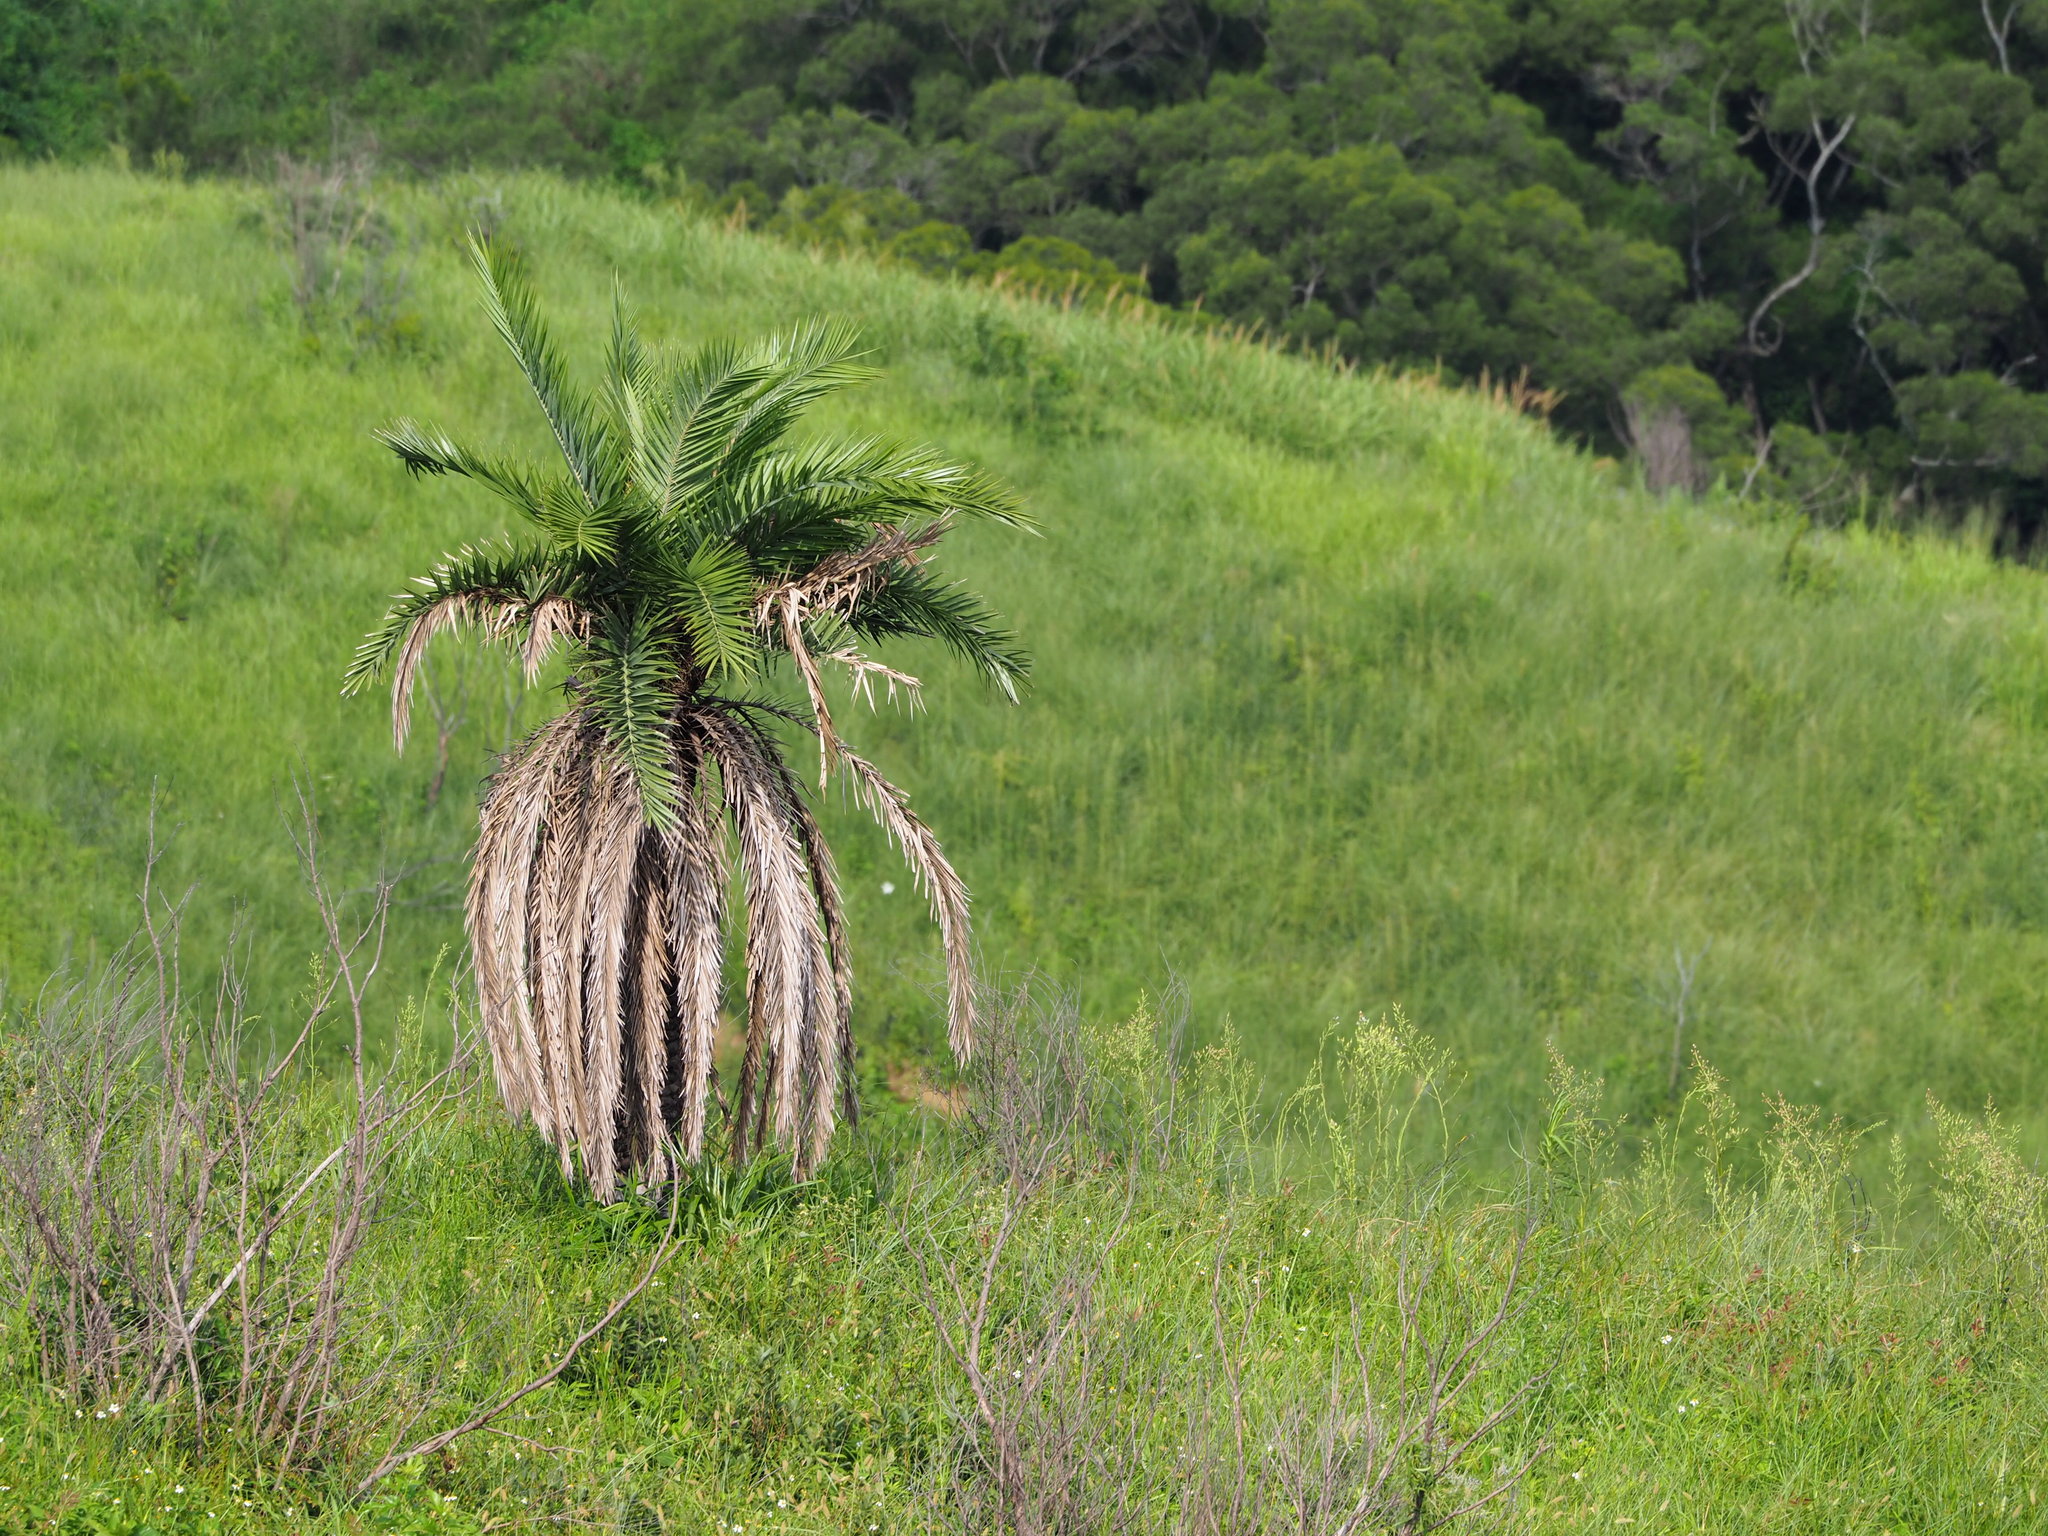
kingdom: Plantae
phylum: Tracheophyta
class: Liliopsida
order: Arecales
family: Arecaceae
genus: Phoenix
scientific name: Phoenix loureiroi
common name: Loureiro's palm
